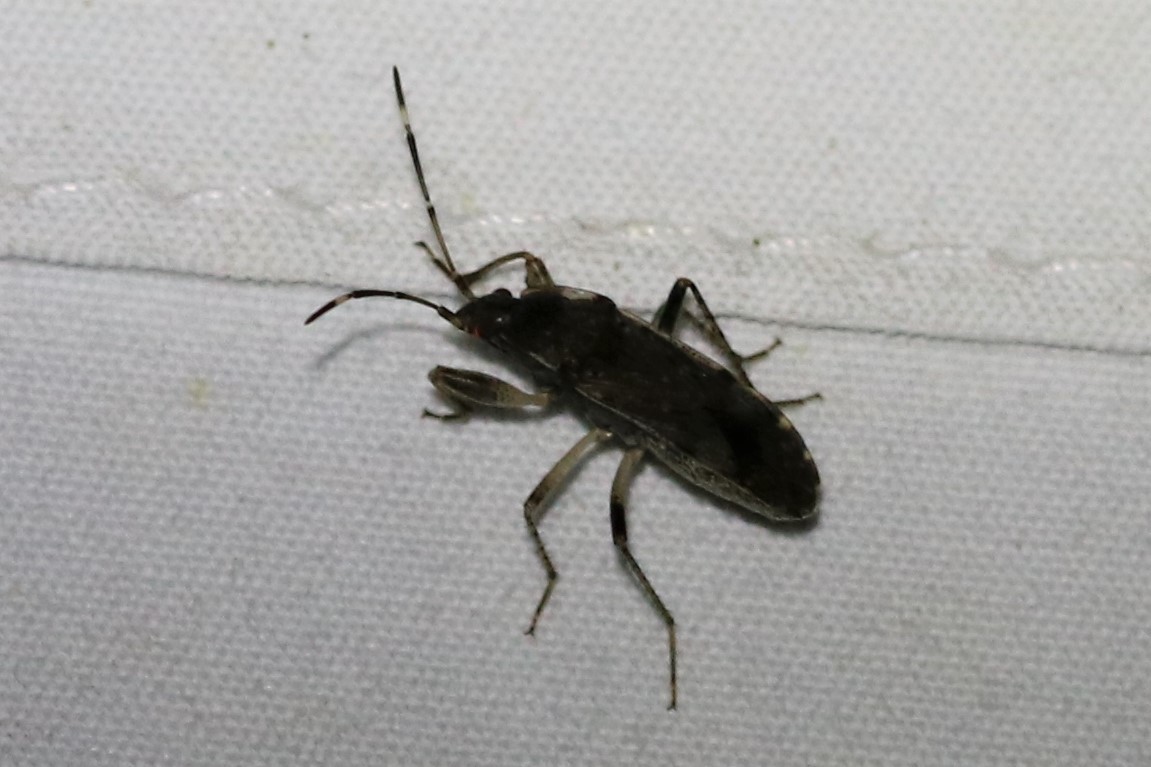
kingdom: Animalia
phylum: Arthropoda
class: Insecta
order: Hemiptera
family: Rhyparochromidae
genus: Elasmolomus
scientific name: Elasmolomus pallens
